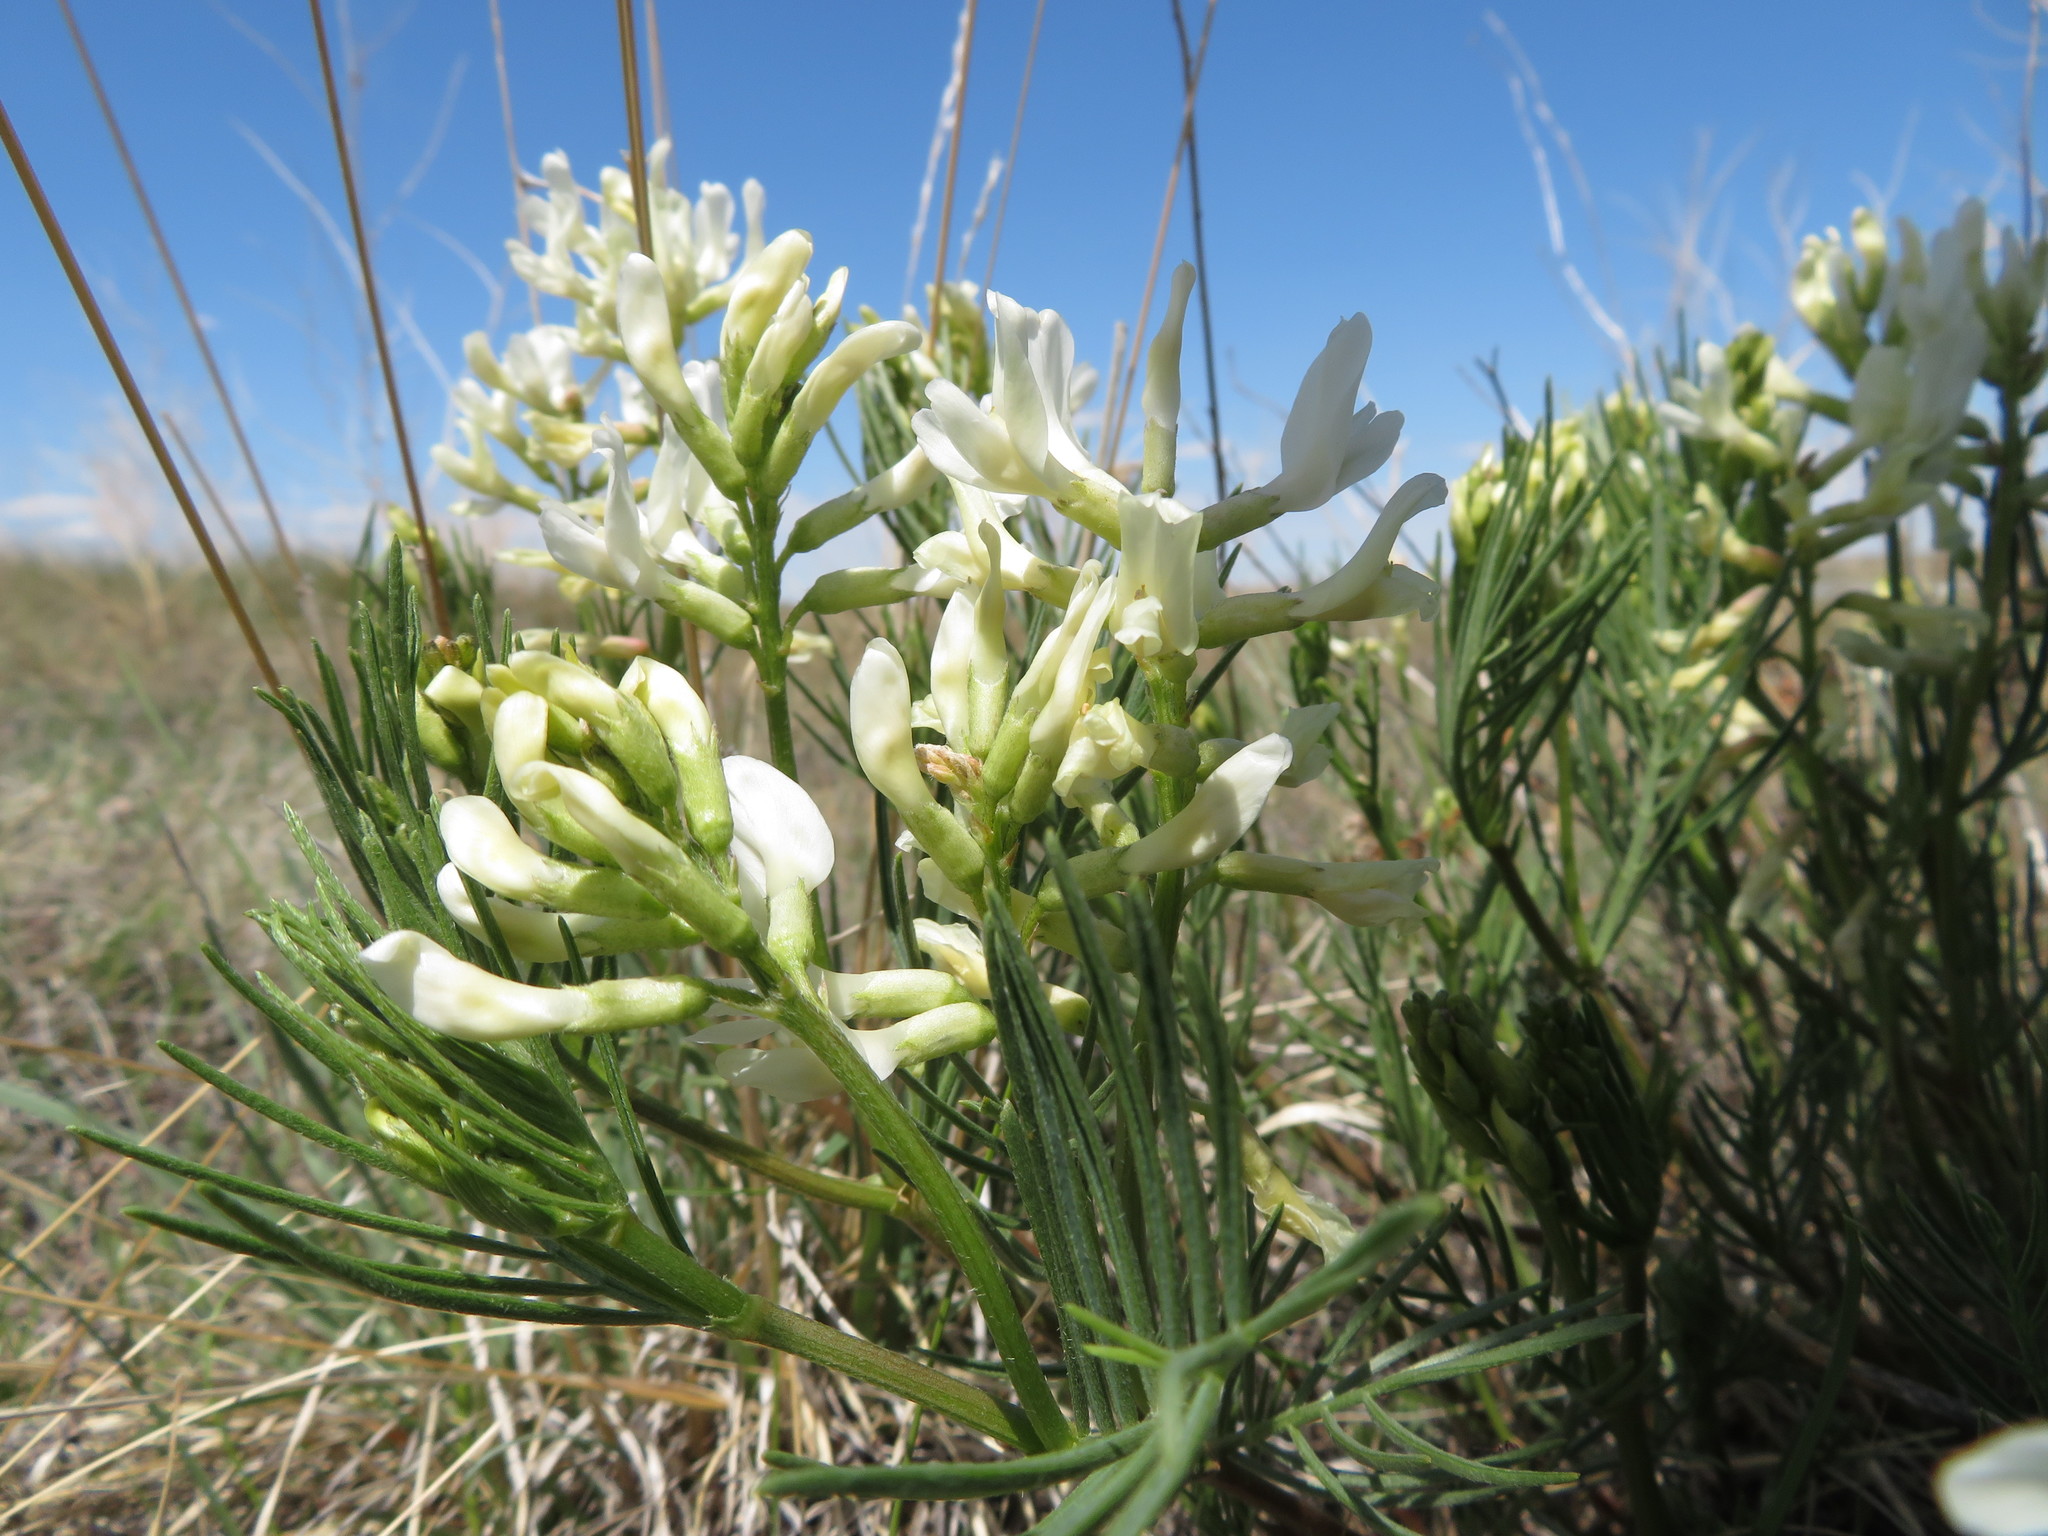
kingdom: Plantae
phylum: Tracheophyta
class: Magnoliopsida
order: Fabales
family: Fabaceae
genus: Astragalus
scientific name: Astragalus pectinatus
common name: Tine-leaf milk-vetch
